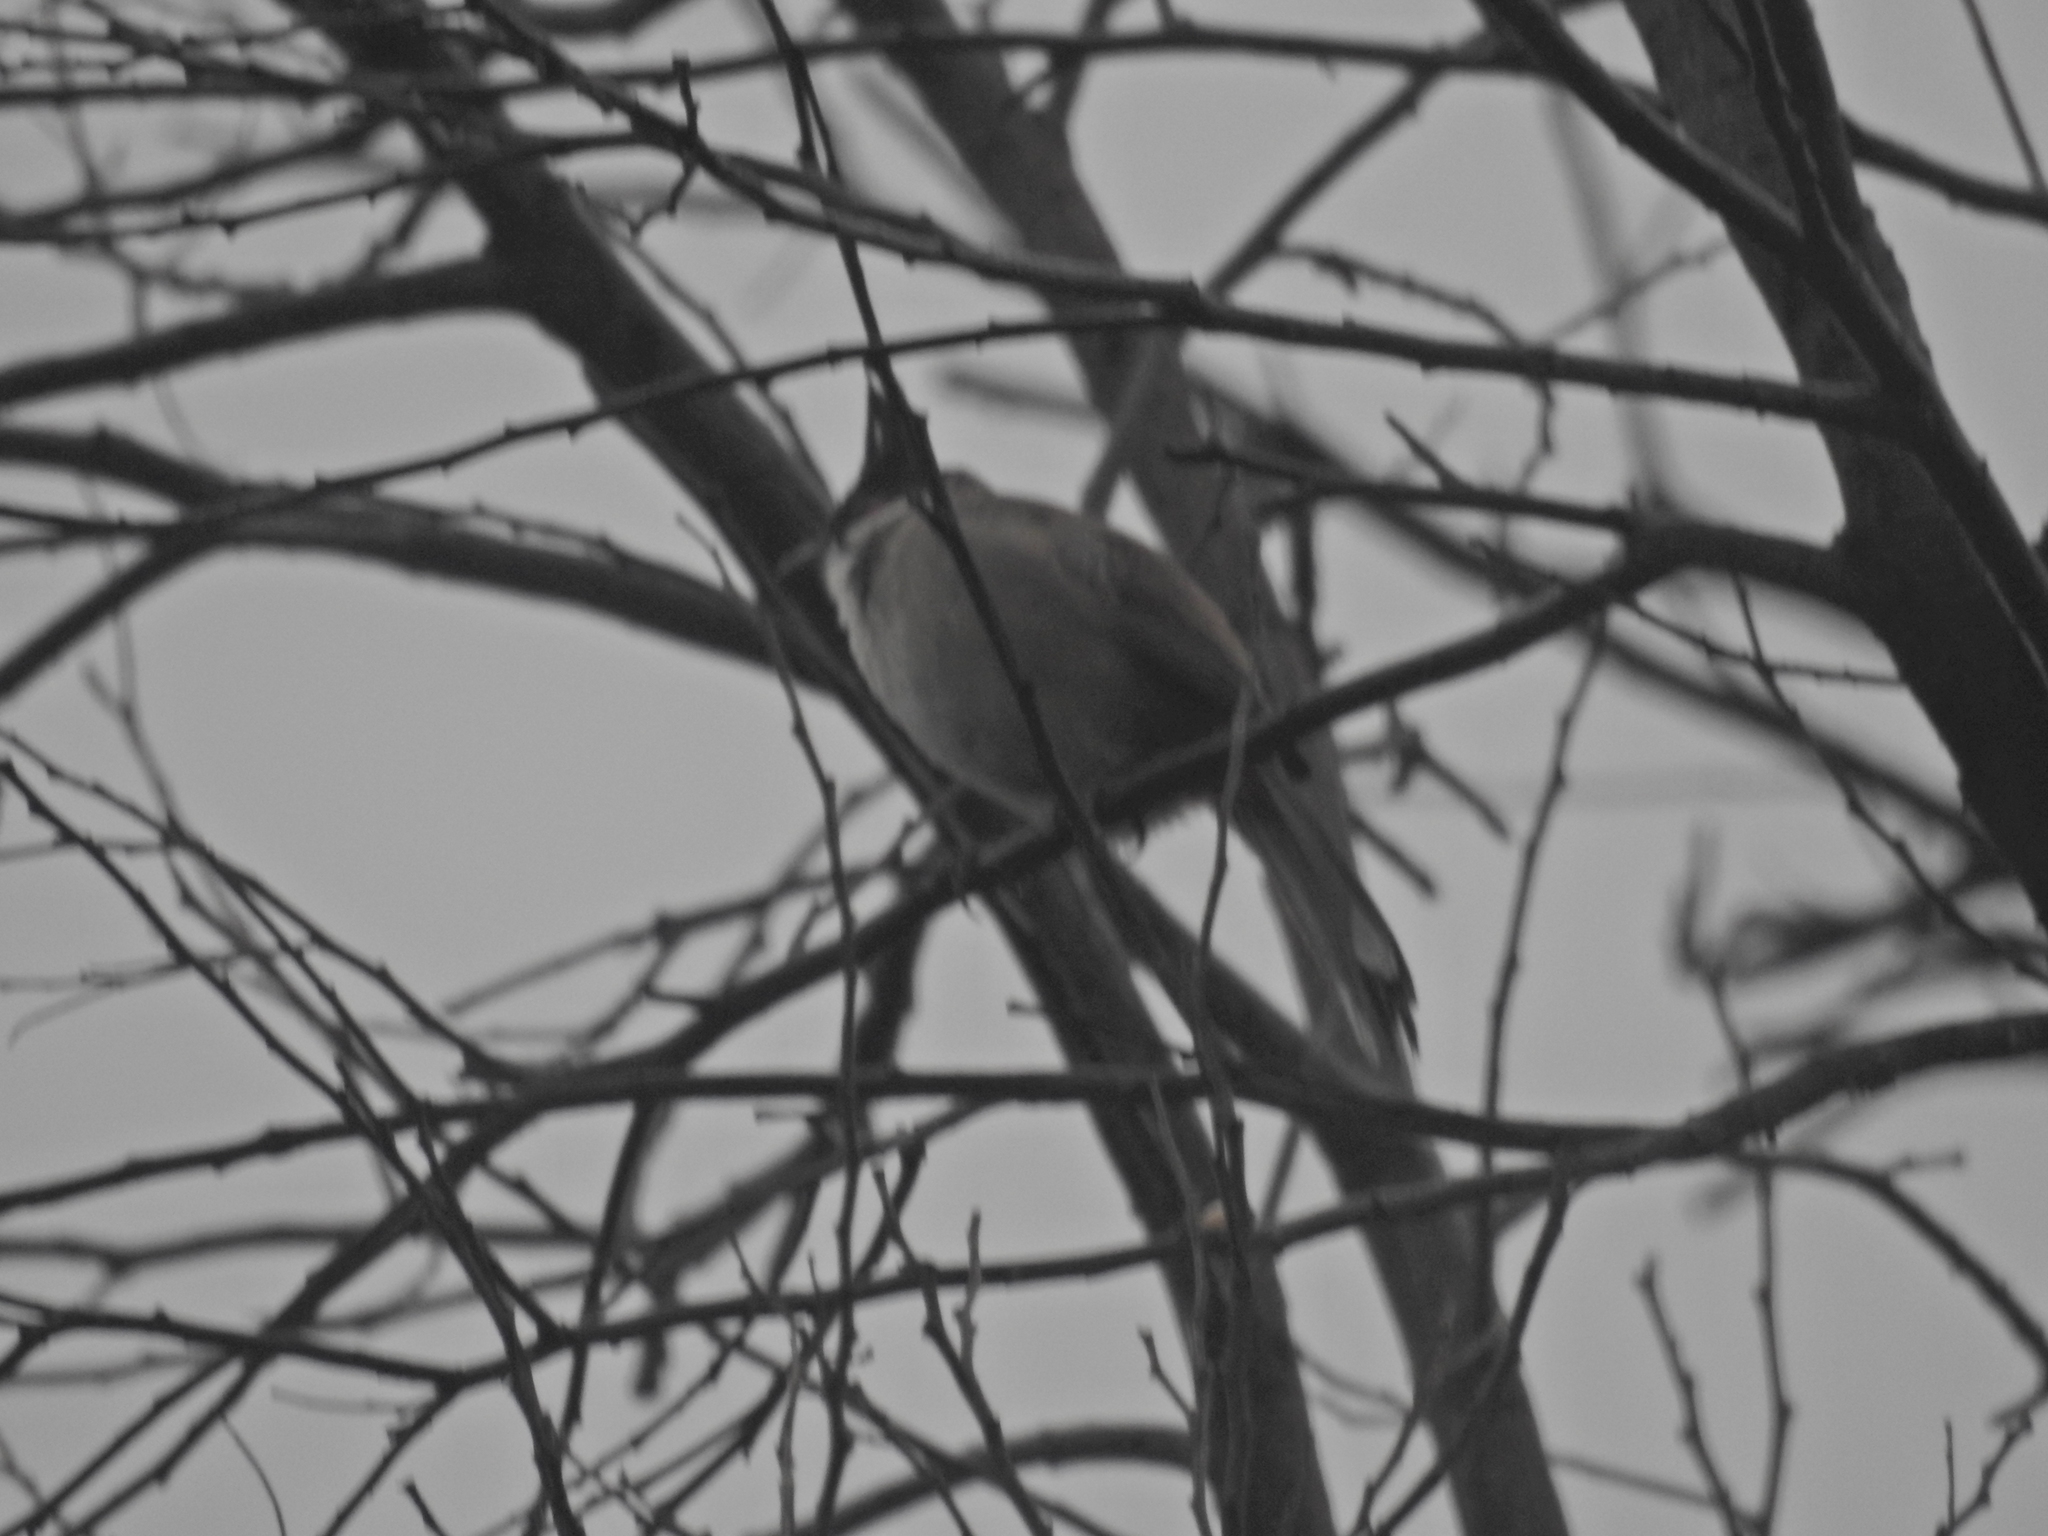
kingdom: Animalia
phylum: Chordata
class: Aves
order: Passeriformes
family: Pycnonotidae
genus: Pycnonotus
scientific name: Pycnonotus jocosus
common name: Red-whiskered bulbul
